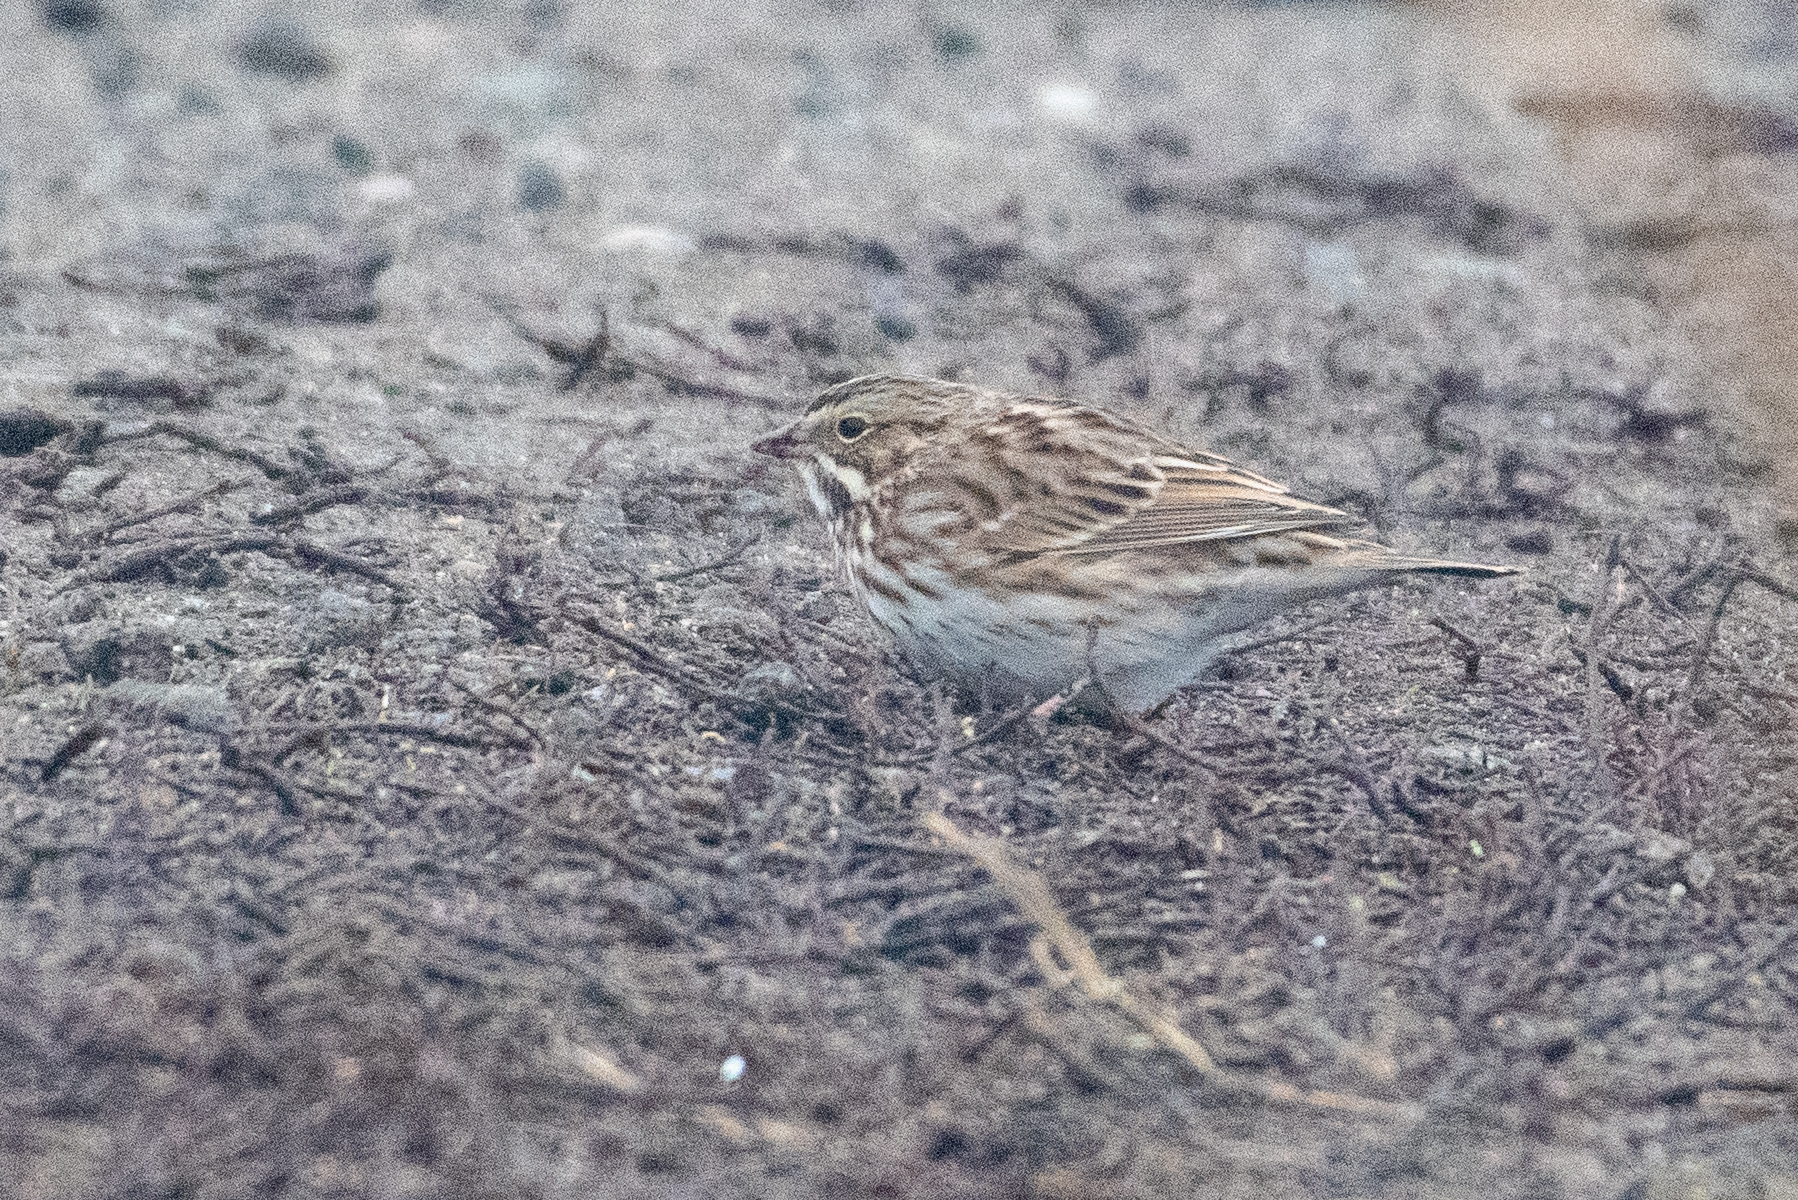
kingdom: Animalia
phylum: Chordata
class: Aves
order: Passeriformes
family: Passerellidae
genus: Passerculus
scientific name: Passerculus sandwichensis
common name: Savannah sparrow
